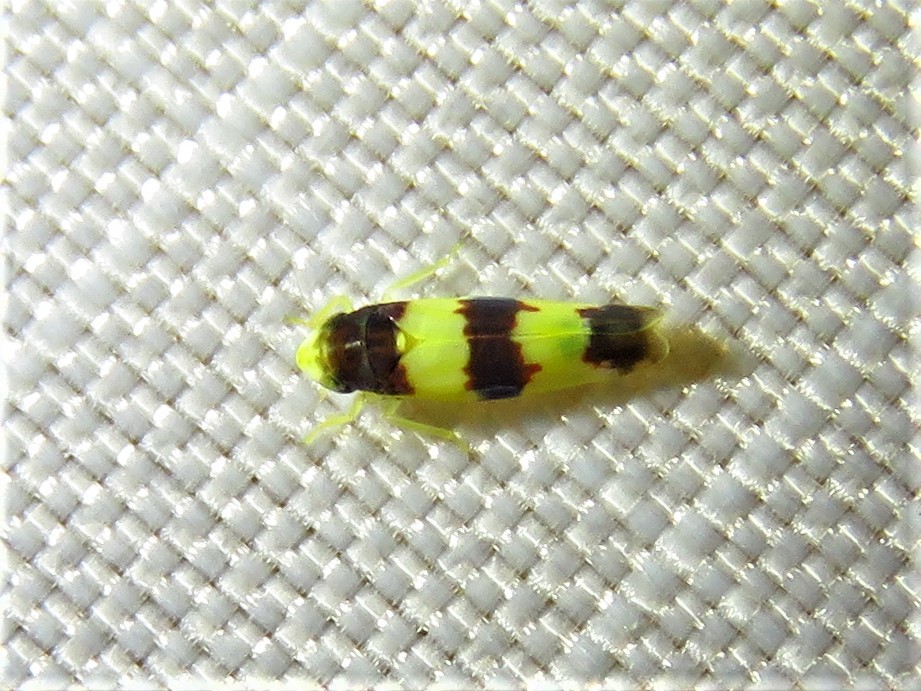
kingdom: Animalia
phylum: Arthropoda
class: Insecta
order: Hemiptera
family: Cicadellidae
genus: Erythroneura
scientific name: Erythroneura bistrata
